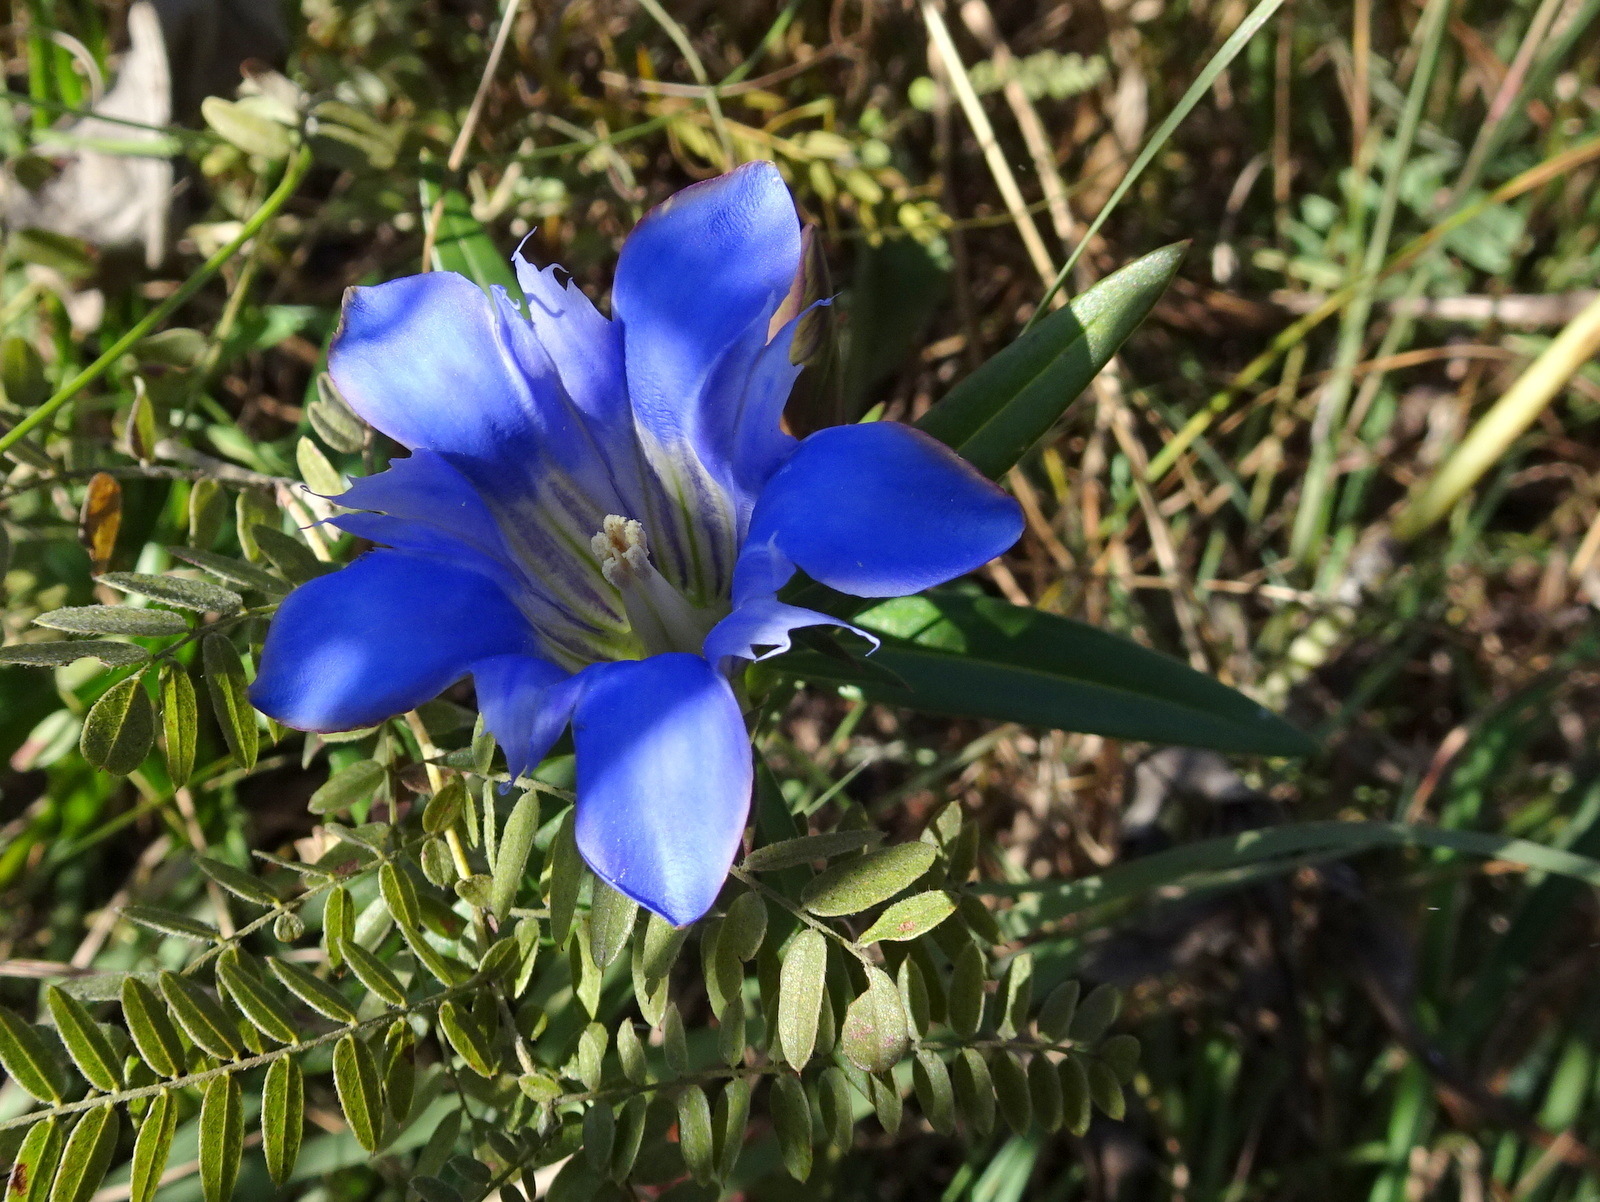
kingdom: Plantae
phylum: Tracheophyta
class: Magnoliopsida
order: Gentianales
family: Gentianaceae
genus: Gentiana
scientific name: Gentiana puberulenta
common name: Downy gentian
